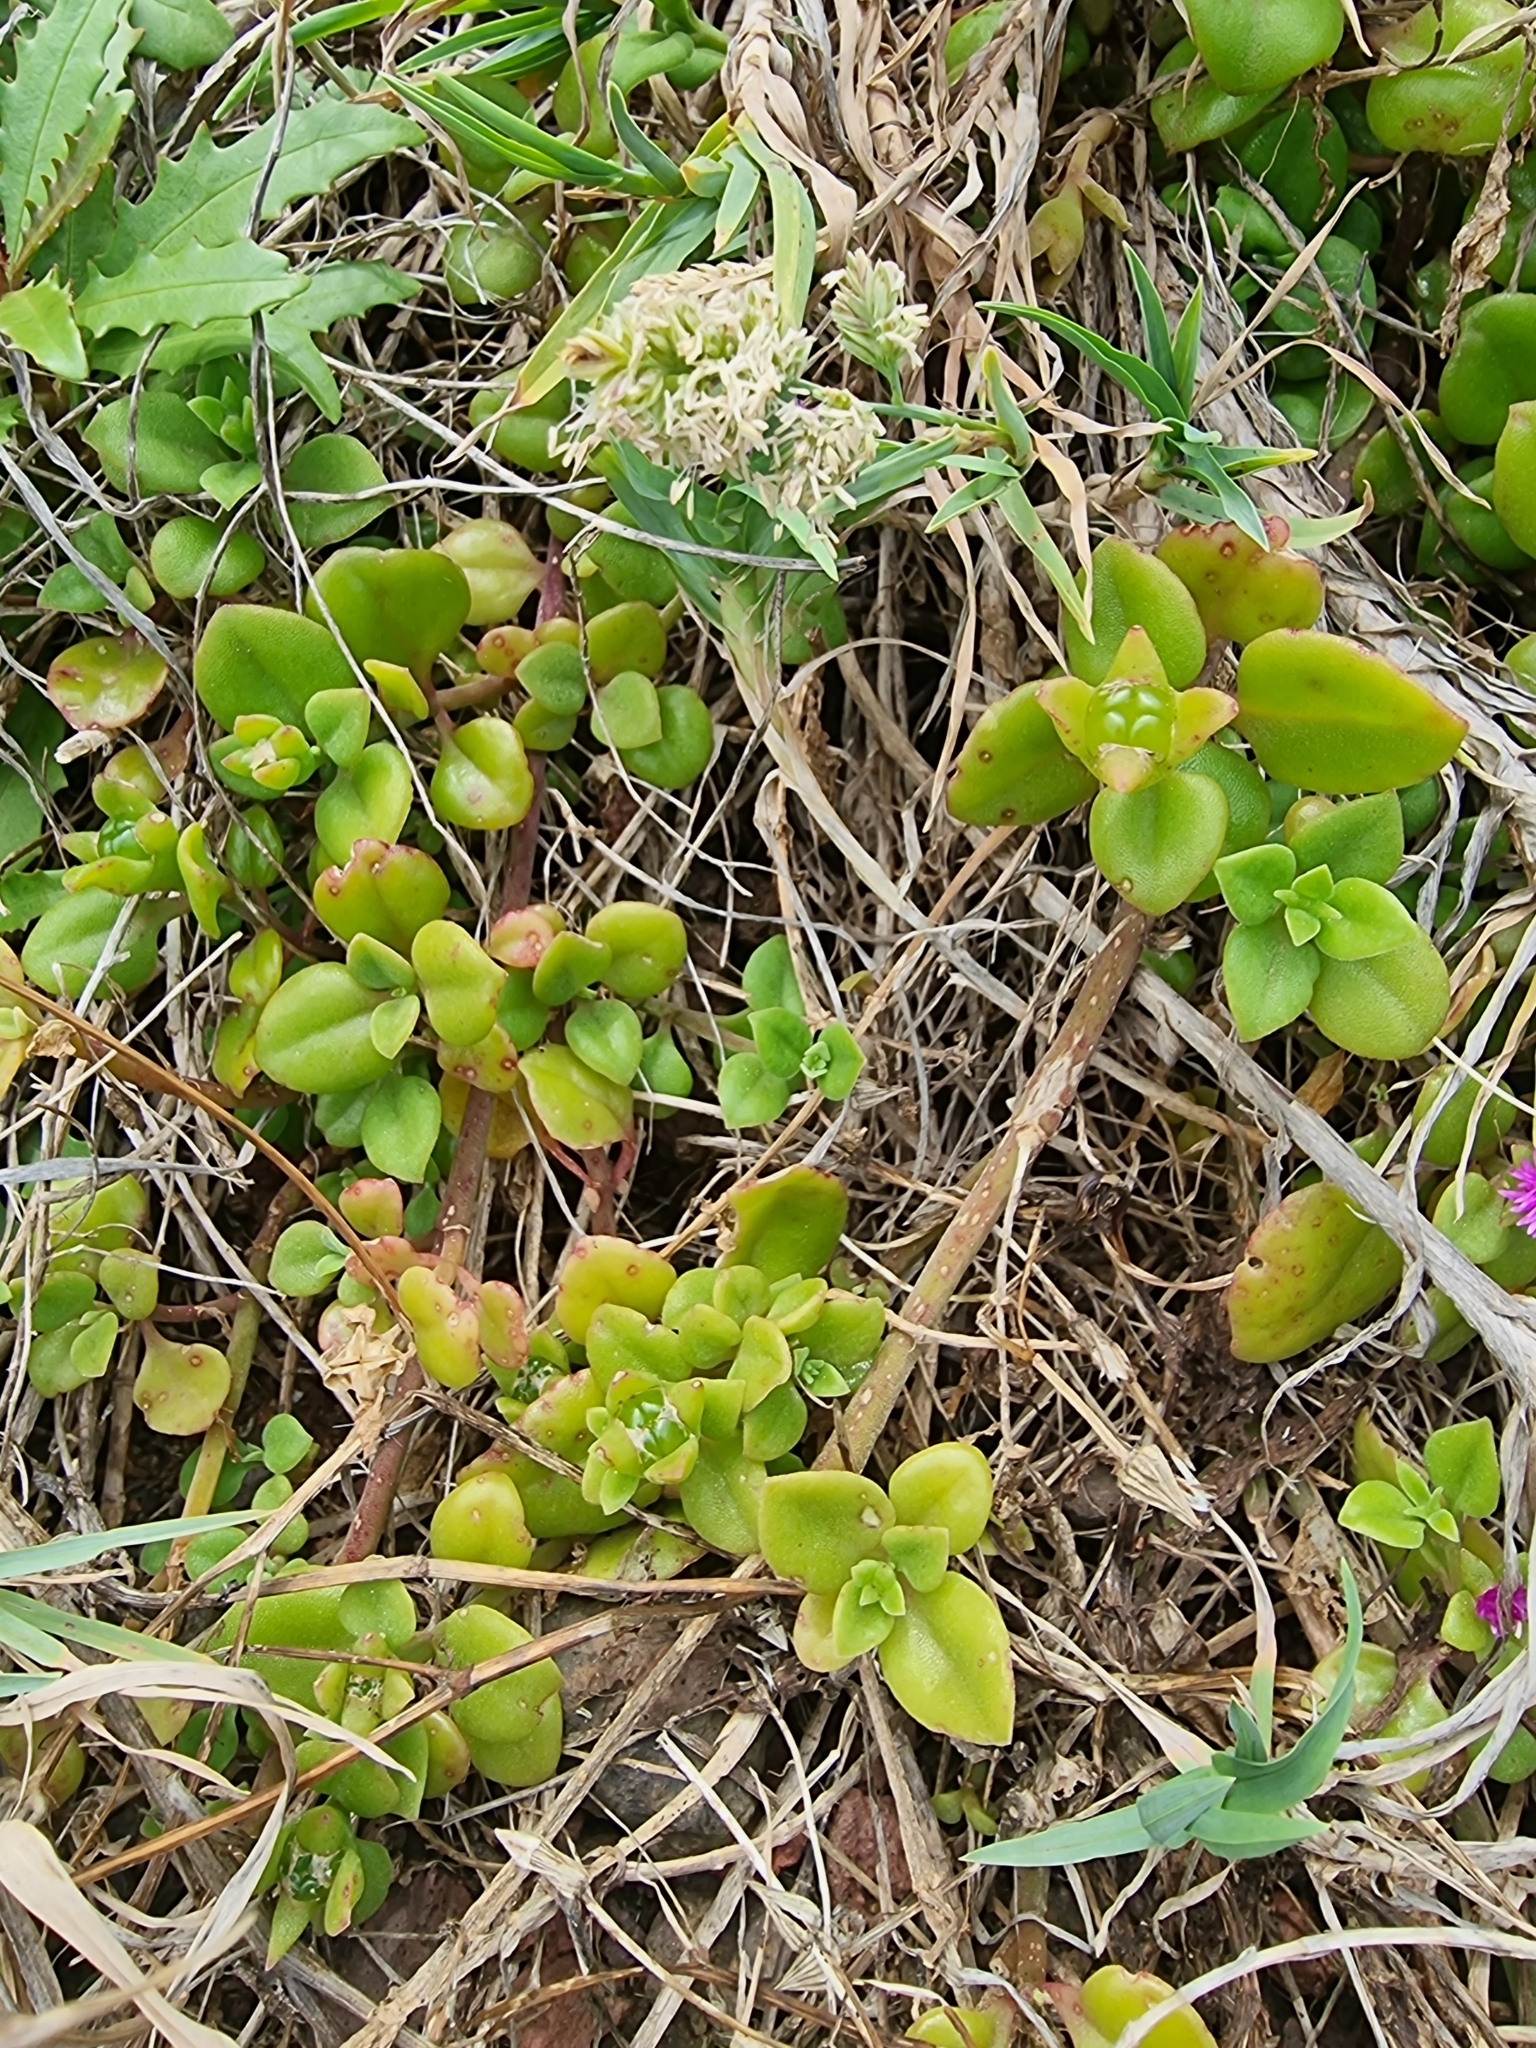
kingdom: Plantae
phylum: Tracheophyta
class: Magnoliopsida
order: Caryophyllales
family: Aizoaceae
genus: Mesembryanthemum
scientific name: Mesembryanthemum cordifolium
